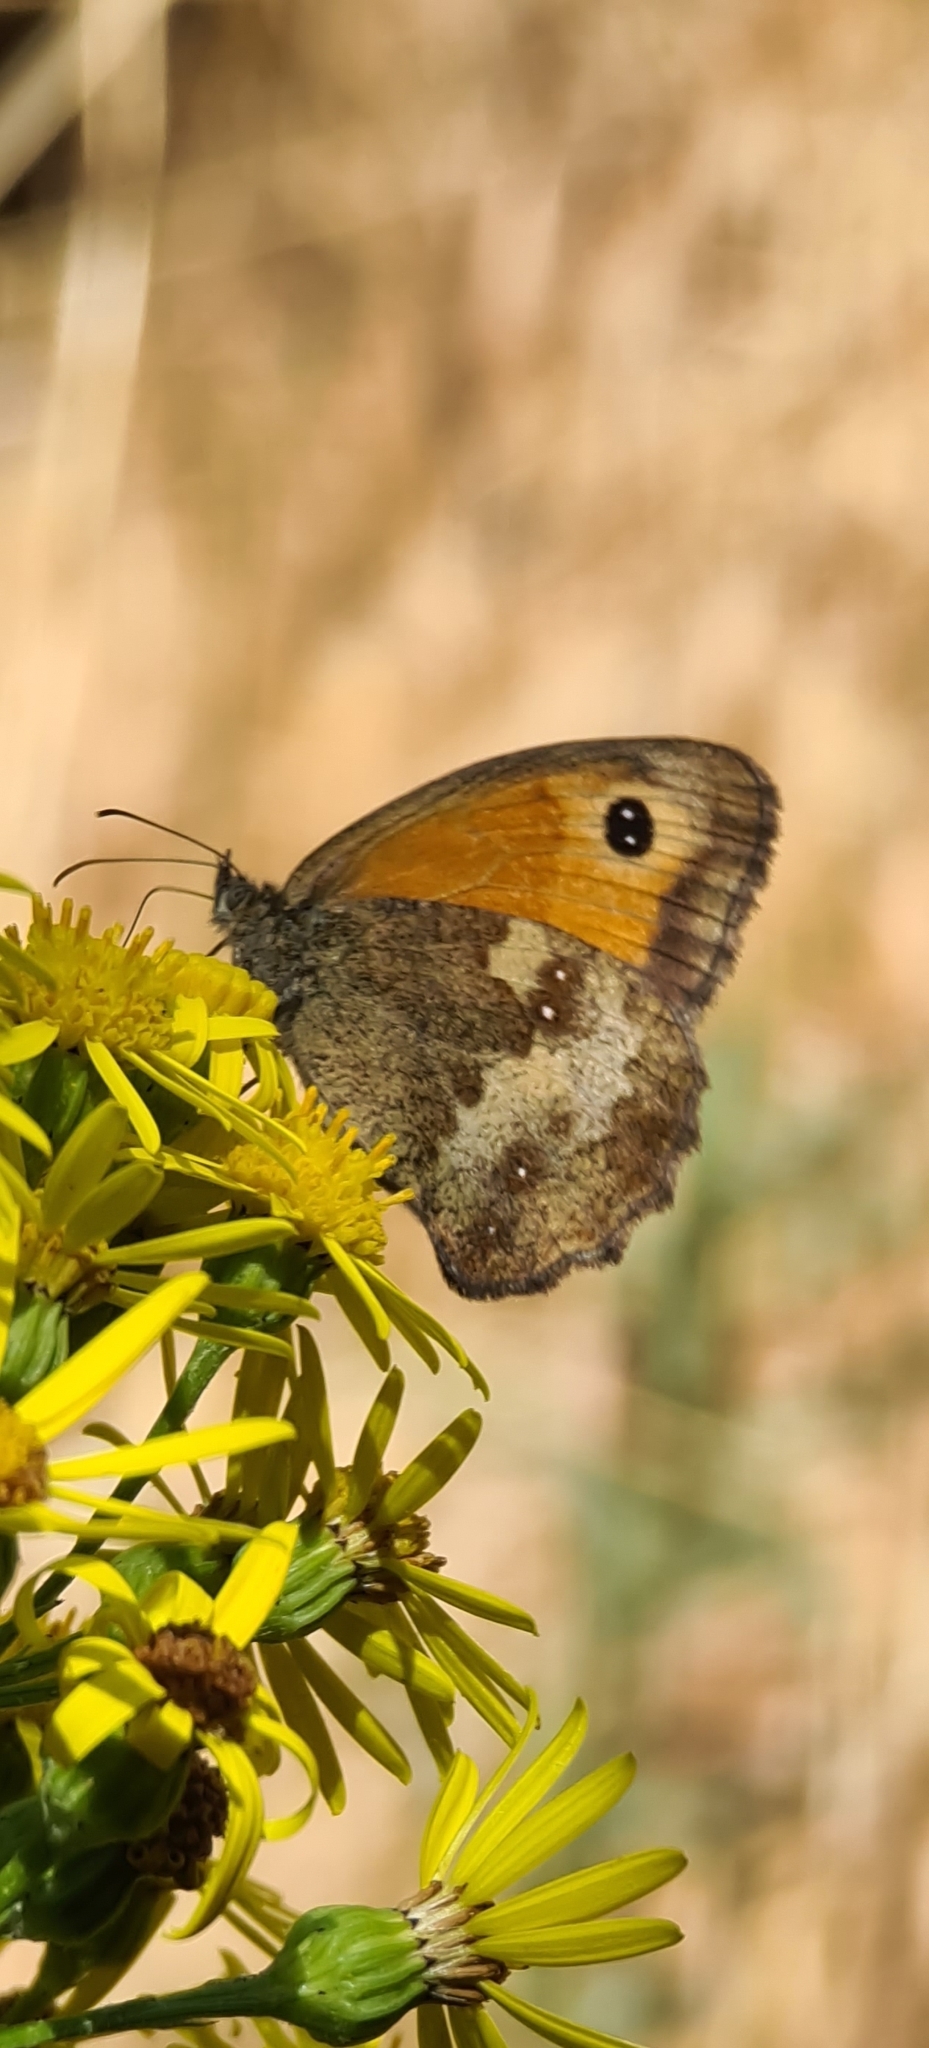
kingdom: Animalia
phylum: Arthropoda
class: Insecta
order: Lepidoptera
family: Nymphalidae
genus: Pyronia
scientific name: Pyronia tithonus
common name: Gatekeeper
